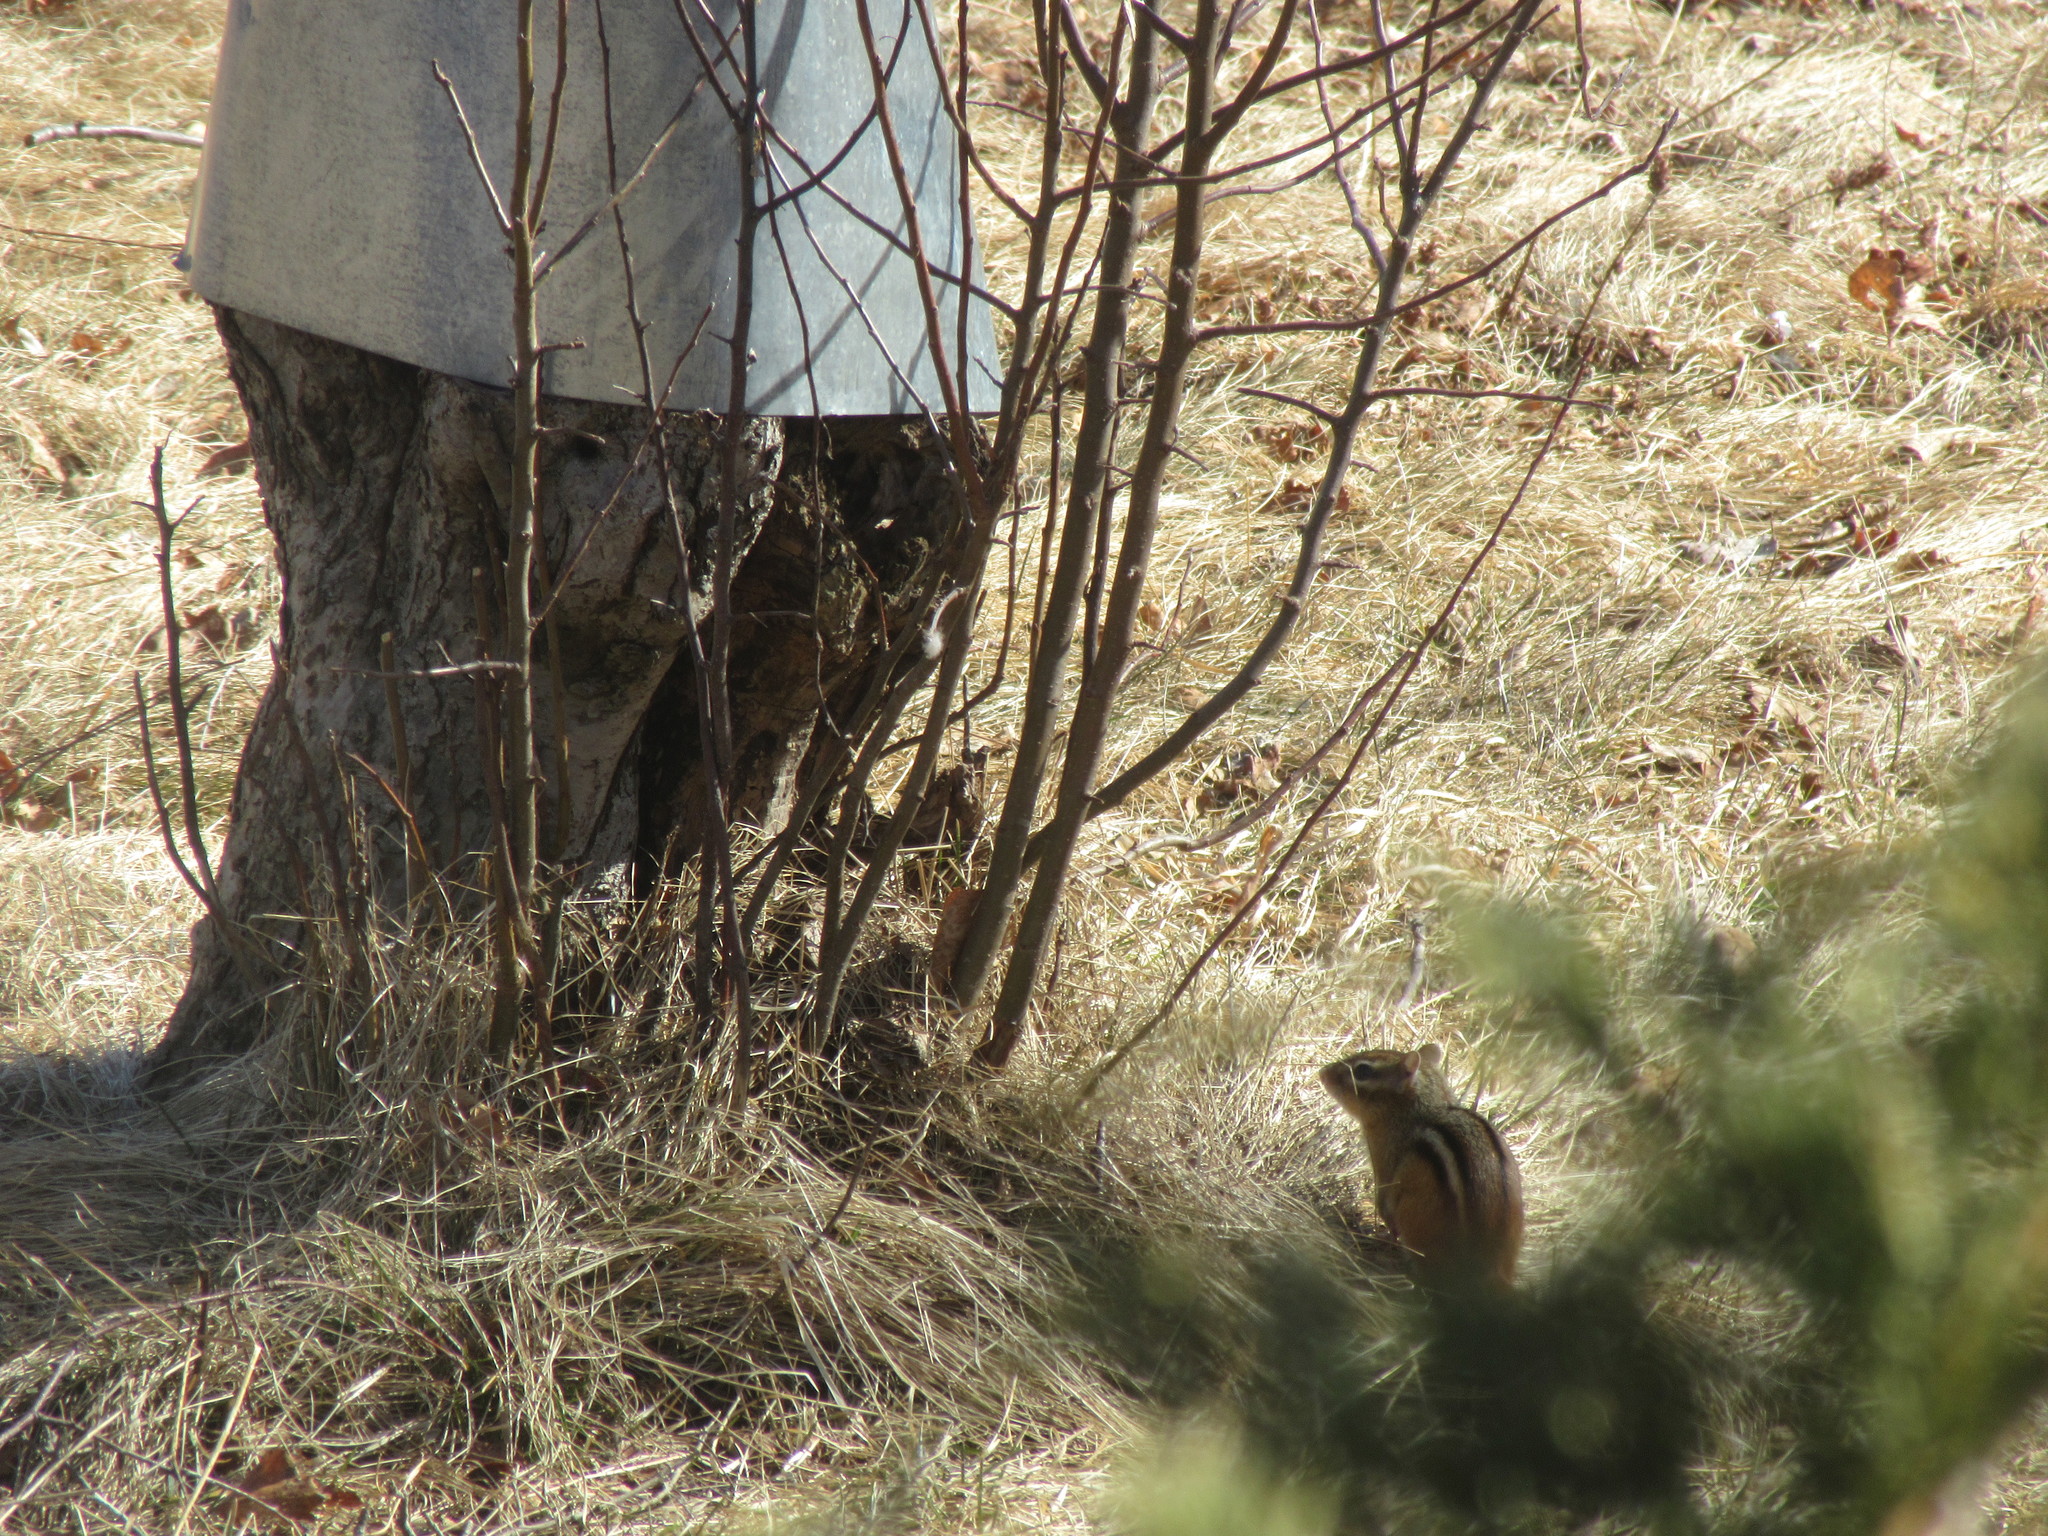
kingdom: Animalia
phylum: Chordata
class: Mammalia
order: Rodentia
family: Sciuridae
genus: Tamias
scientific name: Tamias striatus
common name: Eastern chipmunk
